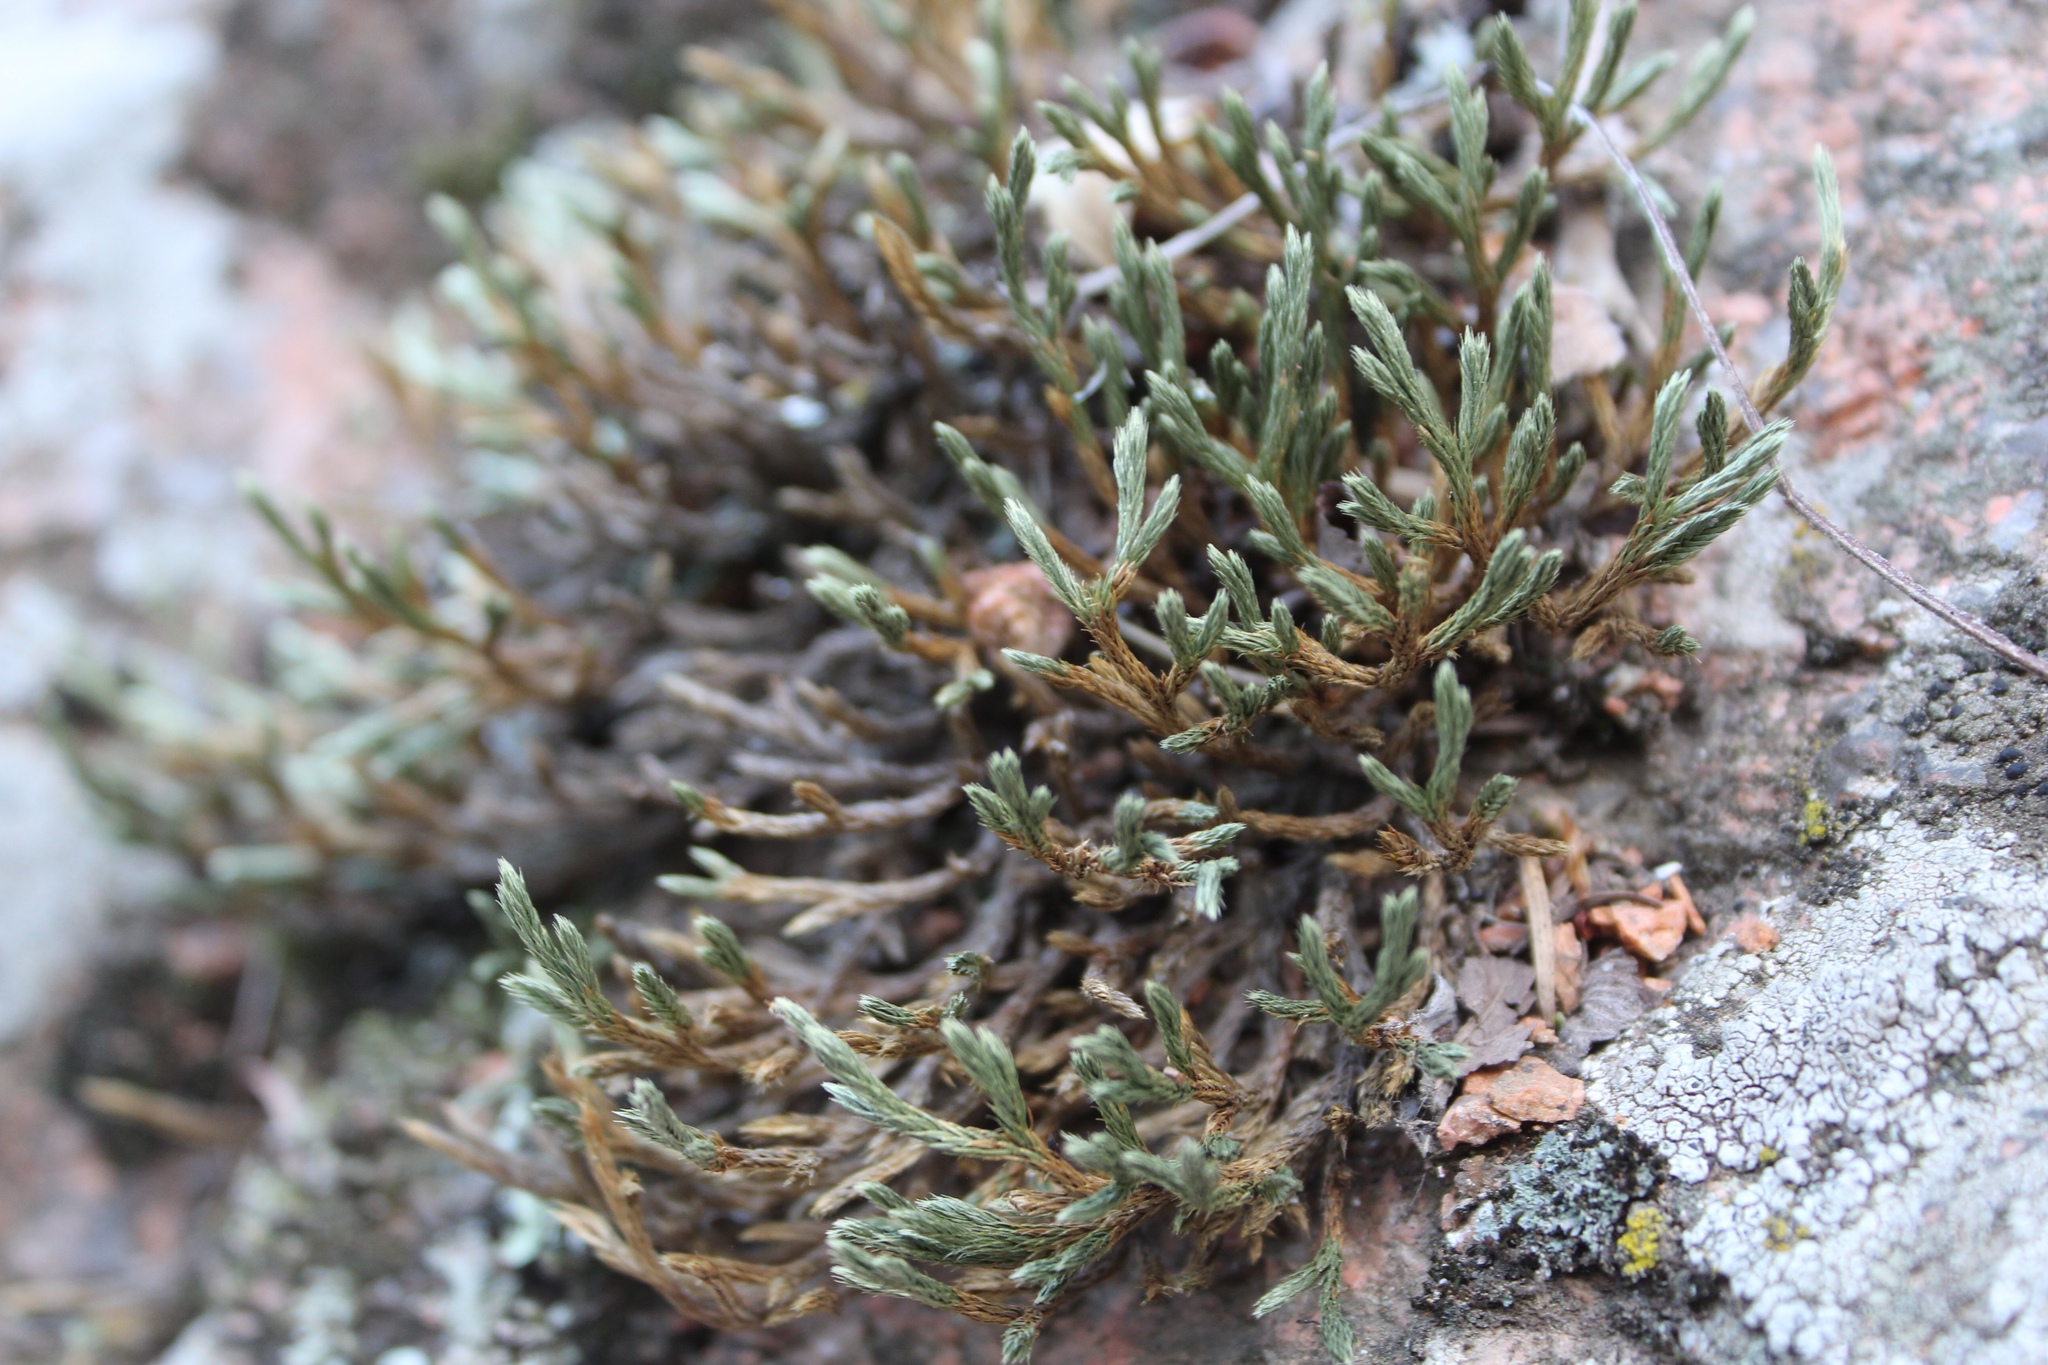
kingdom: Plantae
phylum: Tracheophyta
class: Lycopodiopsida
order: Selaginellales
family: Selaginellaceae
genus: Selaginella
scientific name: Selaginella weatherbiana
